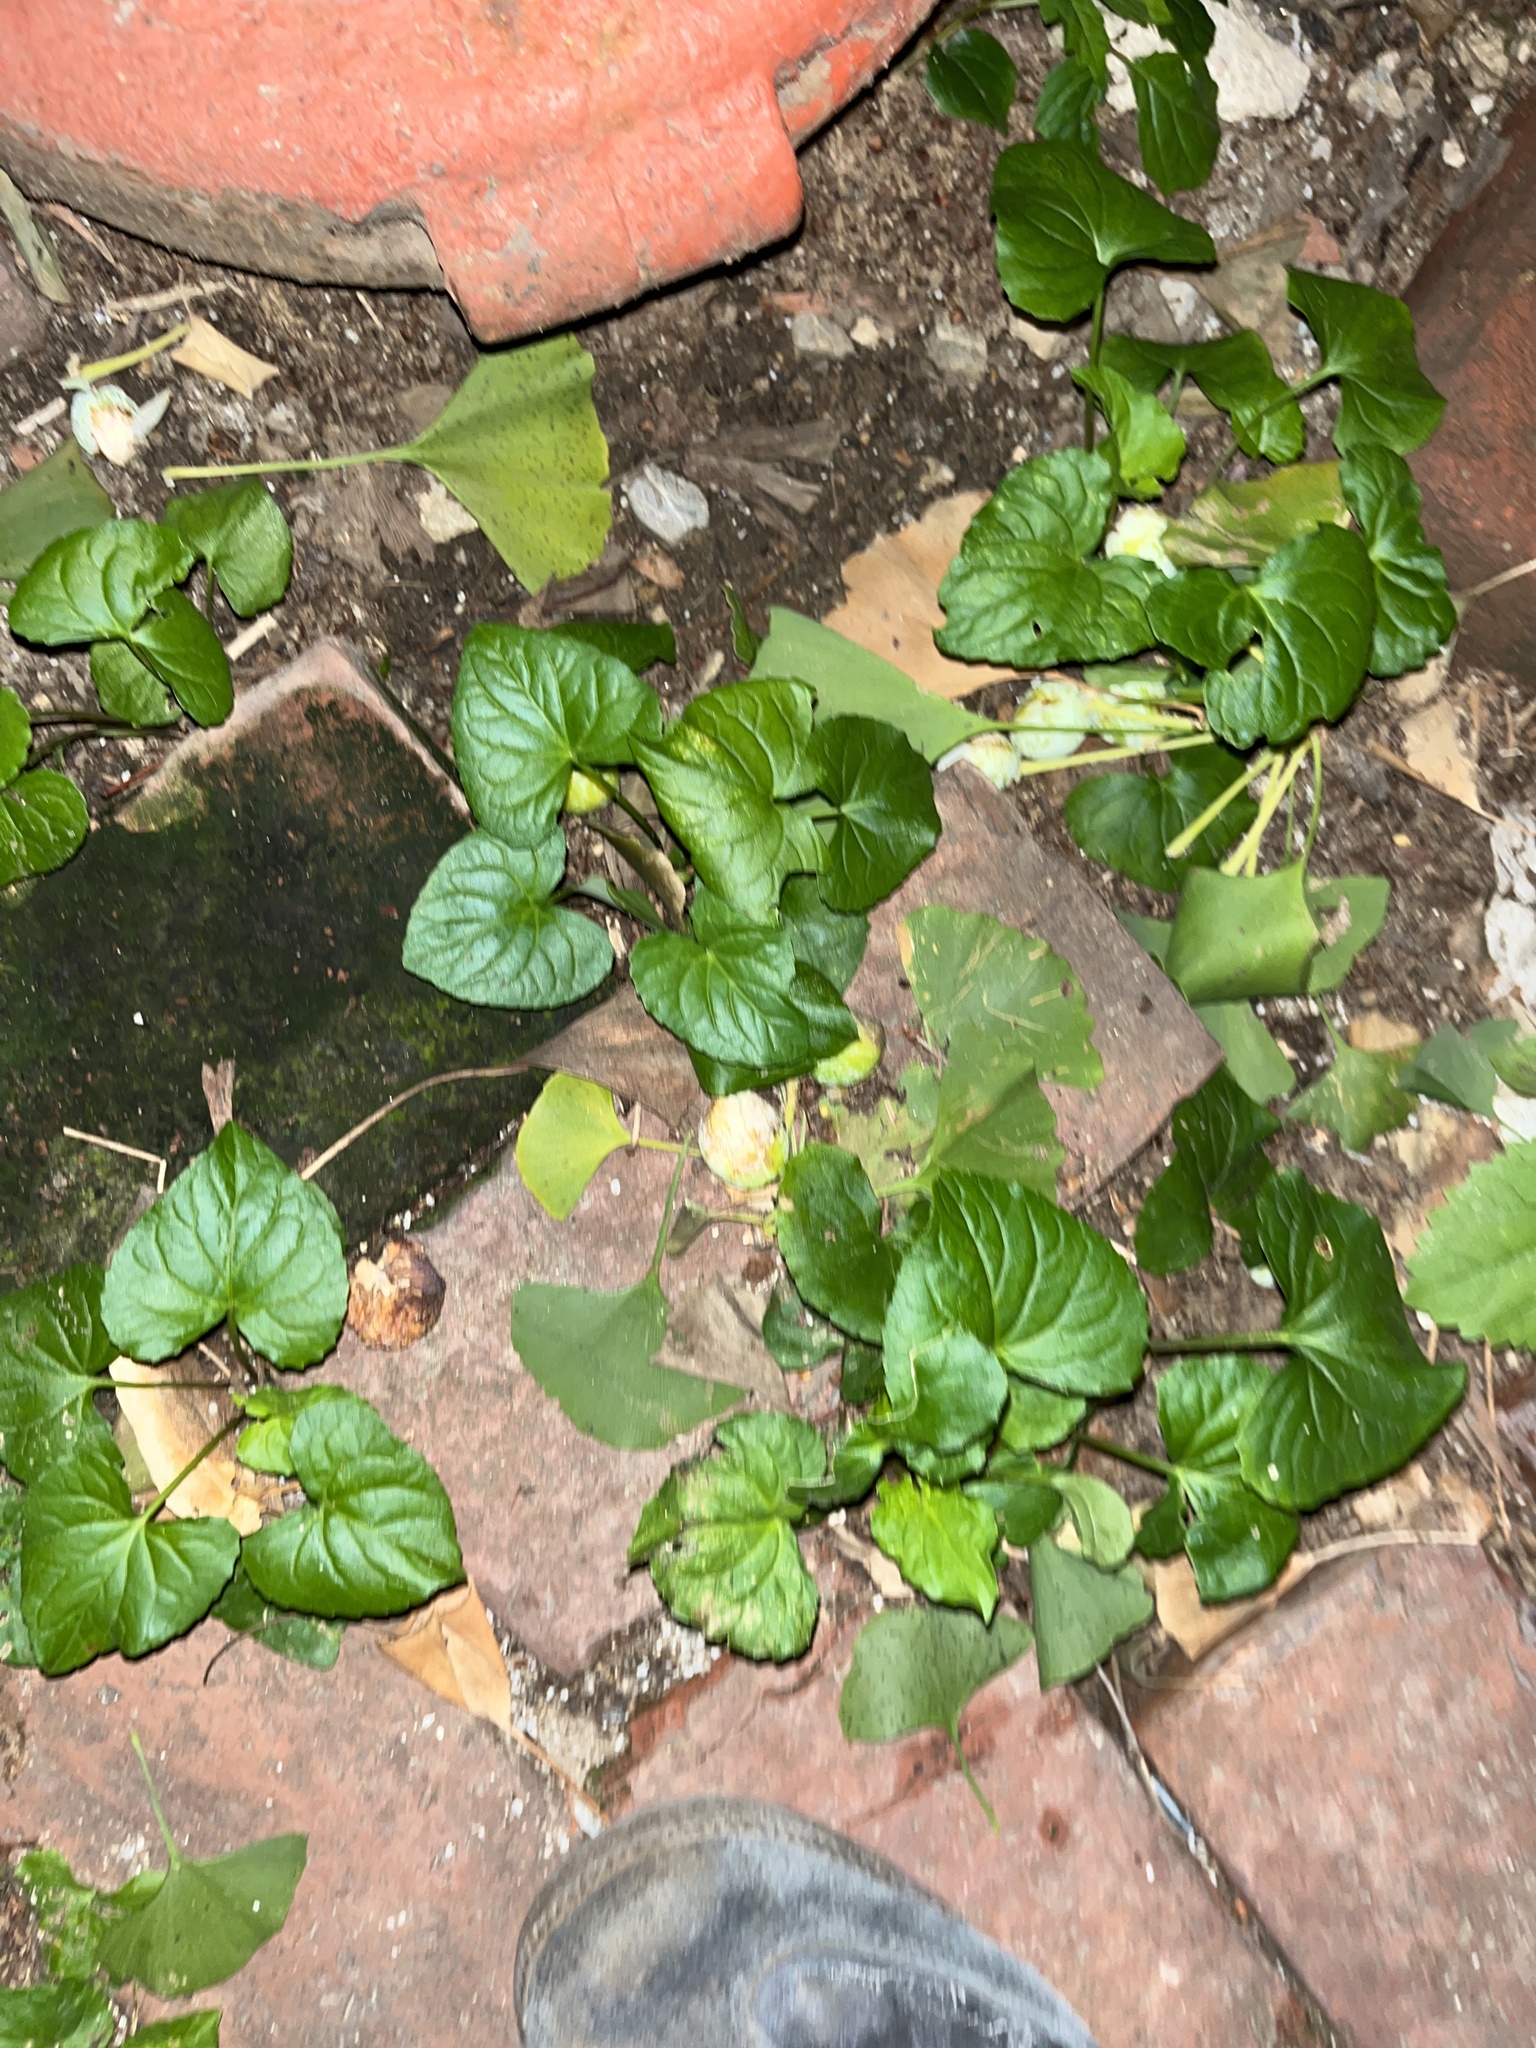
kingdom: Plantae
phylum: Tracheophyta
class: Magnoliopsida
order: Malpighiales
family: Violaceae
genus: Viola
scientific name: Viola sororia
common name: Dooryard violet
